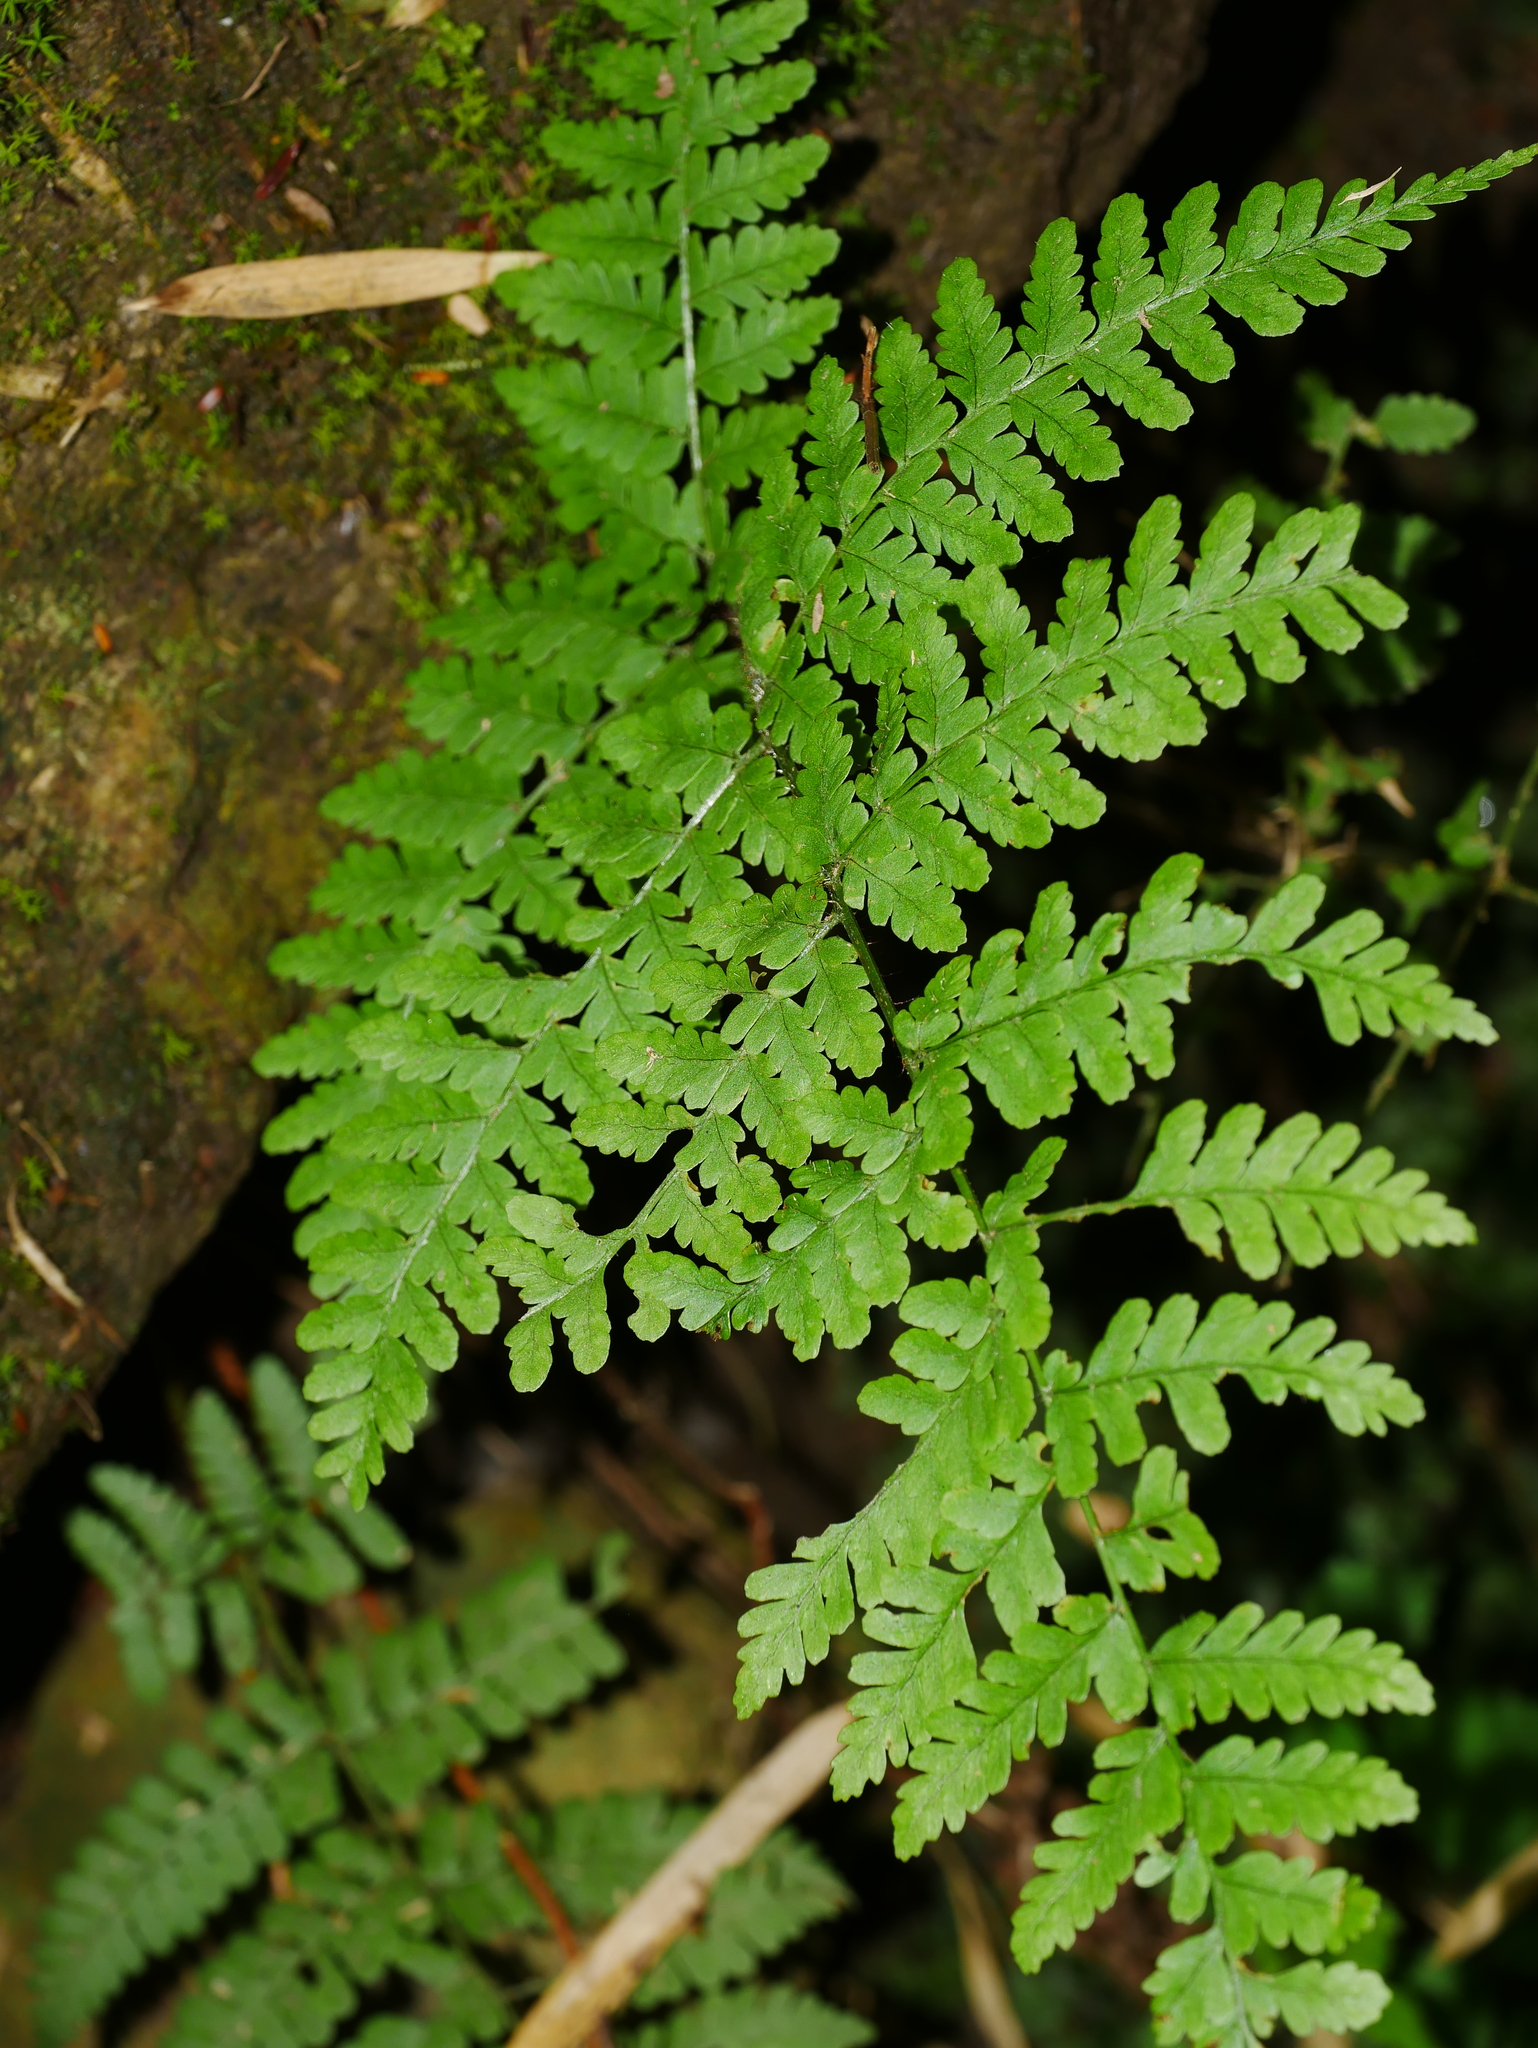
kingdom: Plantae
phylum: Tracheophyta
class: Polypodiopsida
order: Polypodiales
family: Dryopteridaceae
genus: Dryopteris
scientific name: Dryopteris squamiseta
